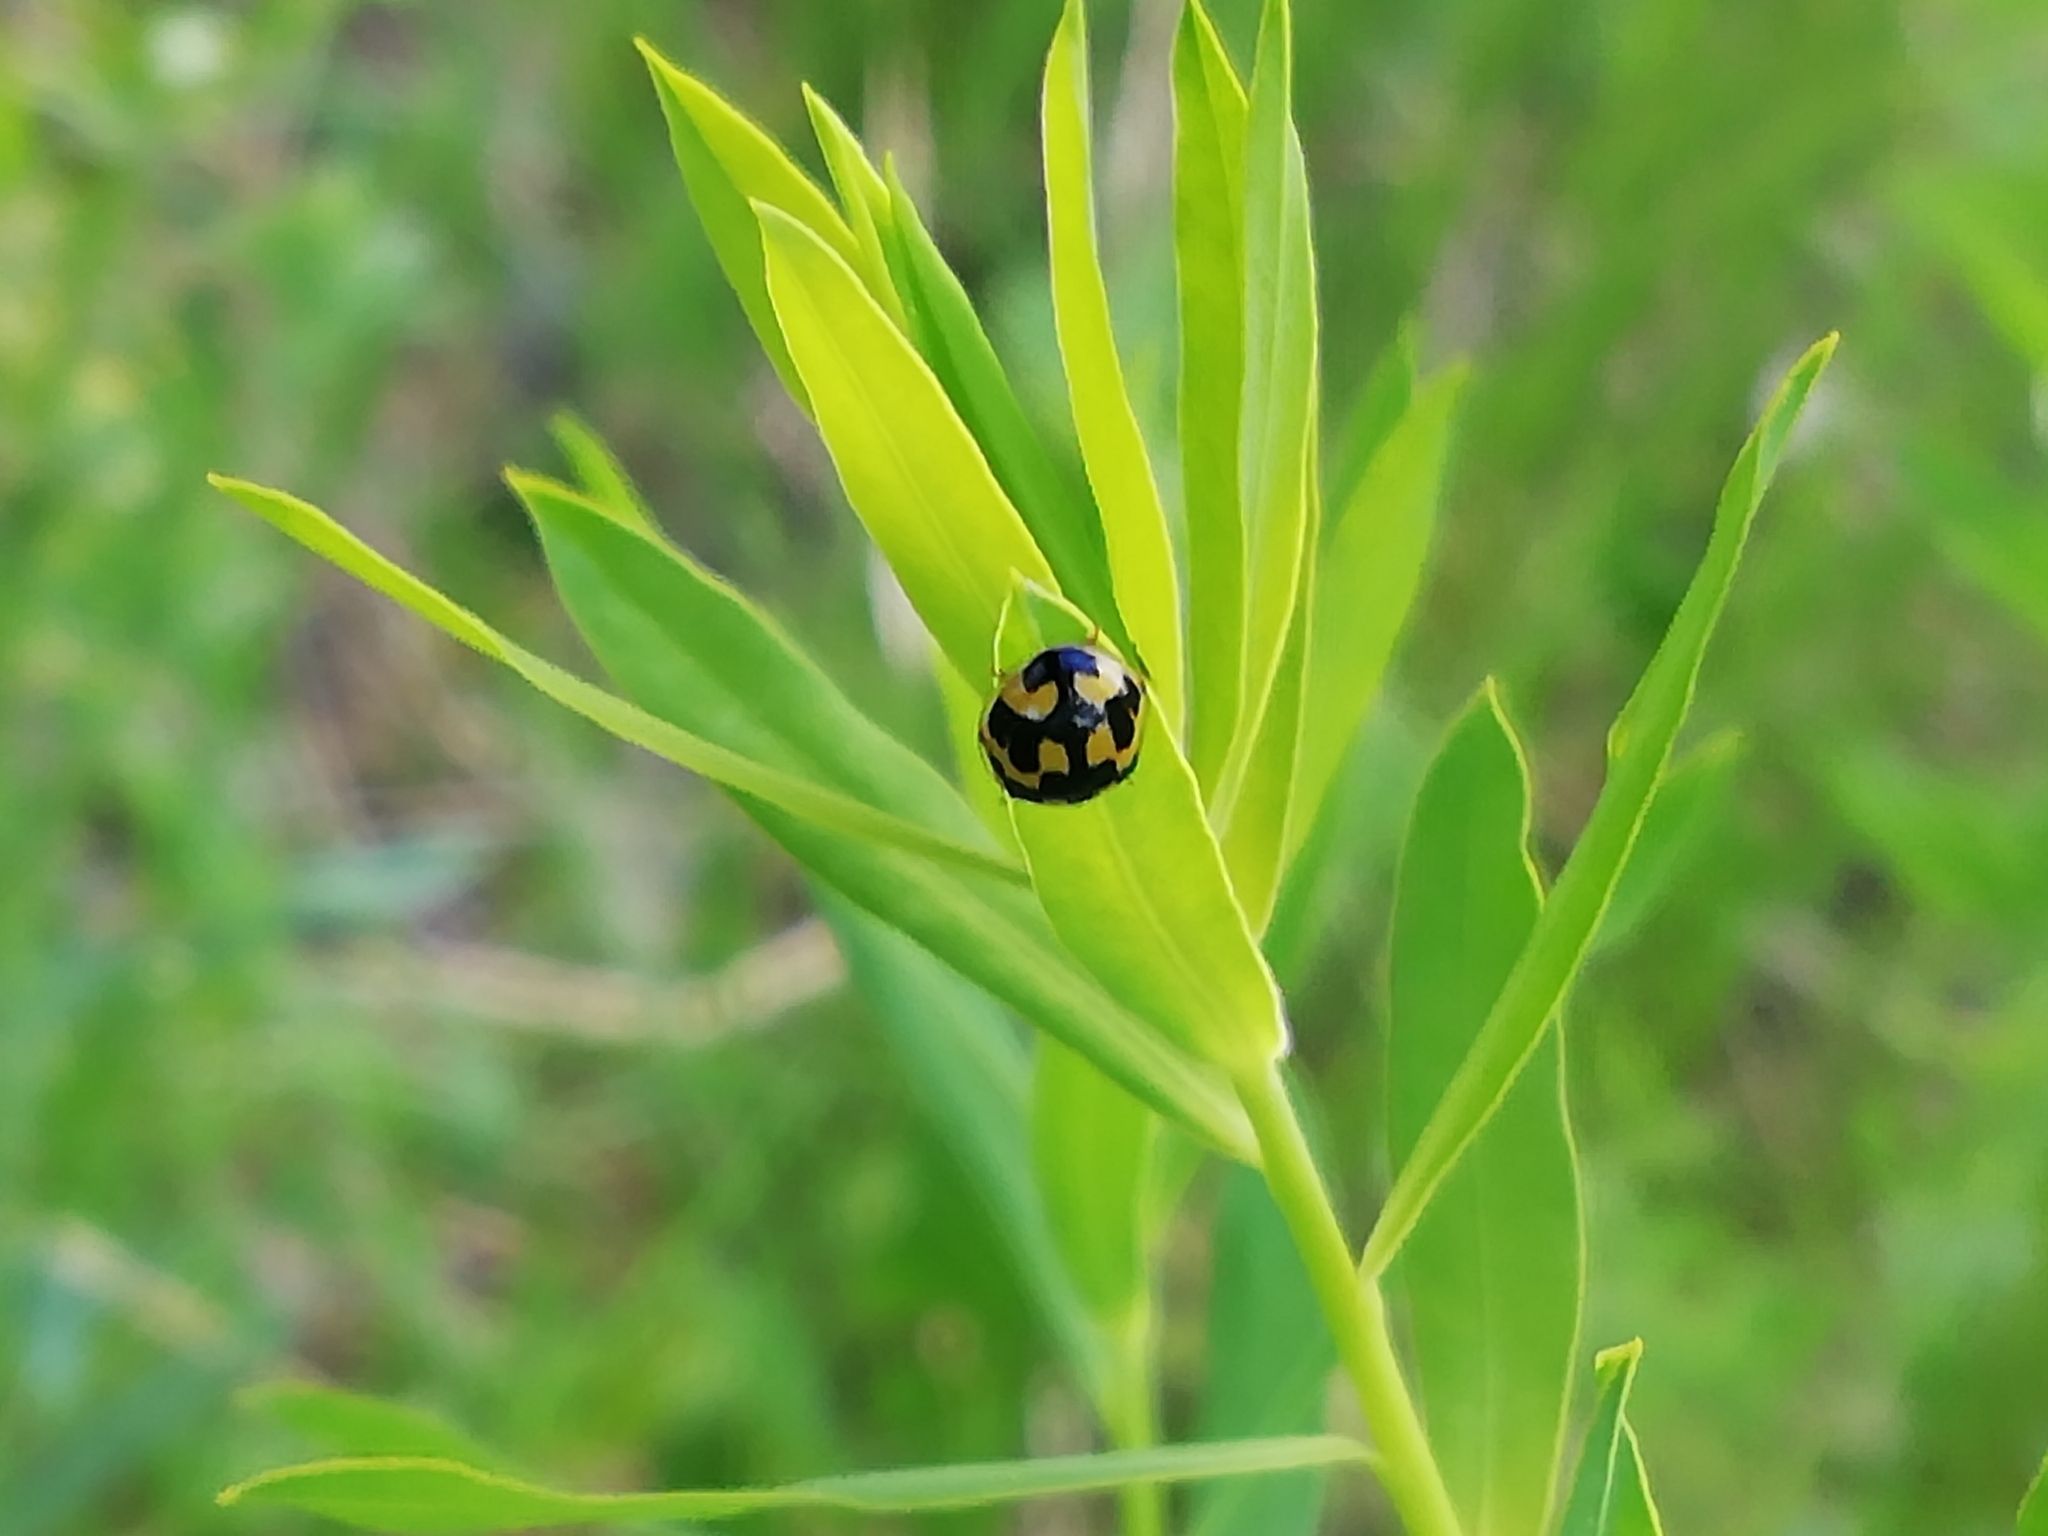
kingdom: Animalia
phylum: Arthropoda
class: Insecta
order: Coleoptera
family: Coccinellidae
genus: Propylaea
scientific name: Propylaea quatuordecimpunctata
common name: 14-spotted ladybird beetle
